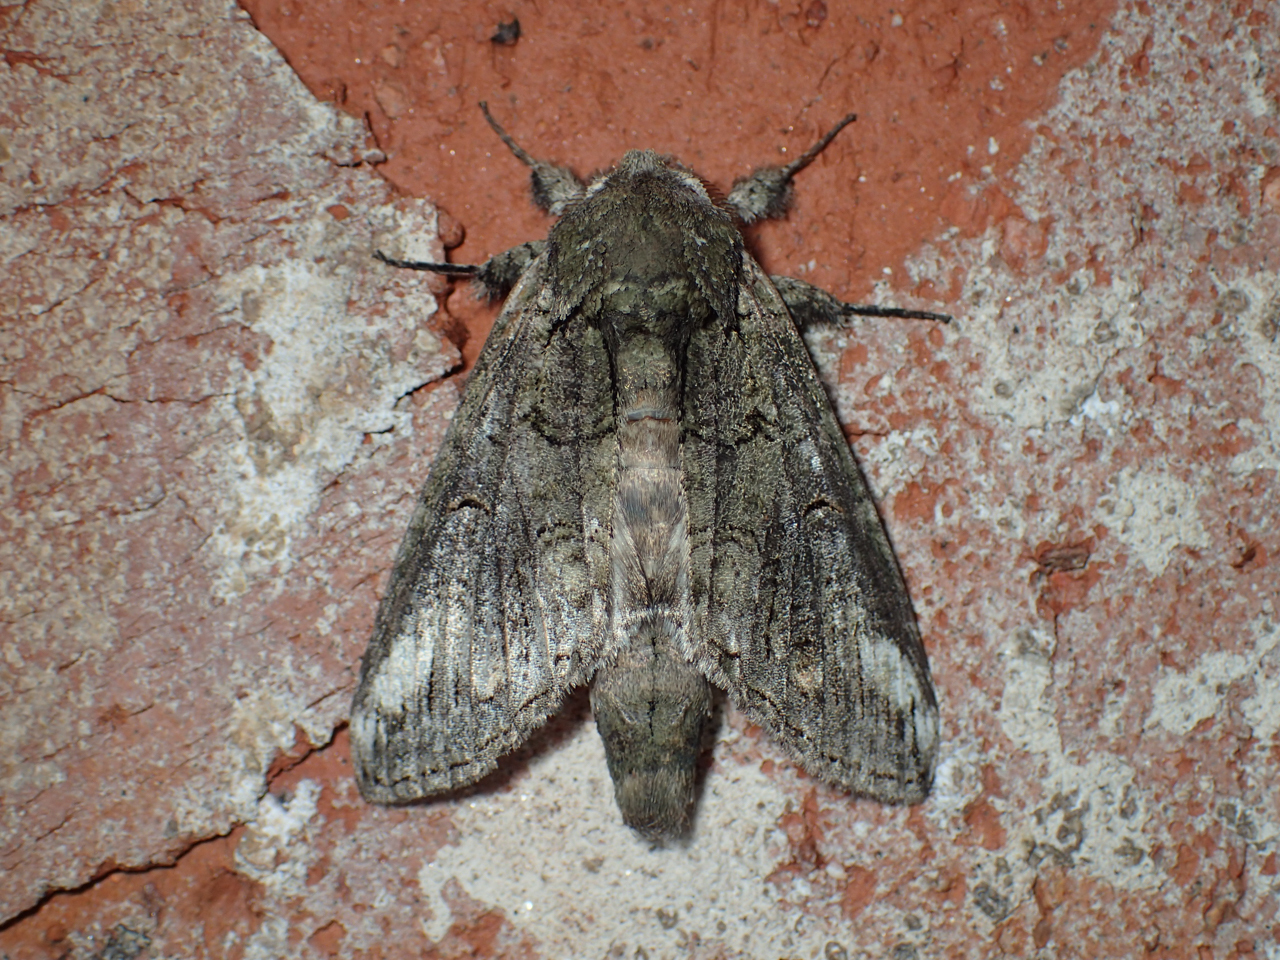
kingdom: Animalia
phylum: Arthropoda
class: Insecta
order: Lepidoptera
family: Notodontidae
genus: Lochmaeus
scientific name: Lochmaeus bilineata
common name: Double-lined prominent
